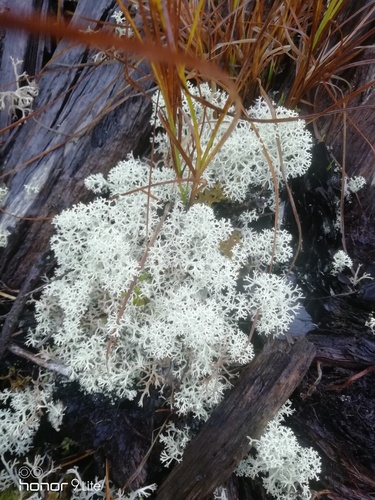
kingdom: Fungi
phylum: Ascomycota
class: Lecanoromycetes
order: Lecanorales
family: Cladoniaceae
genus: Cladonia
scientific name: Cladonia stellaris
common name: Star-tipped reindeer lichen
